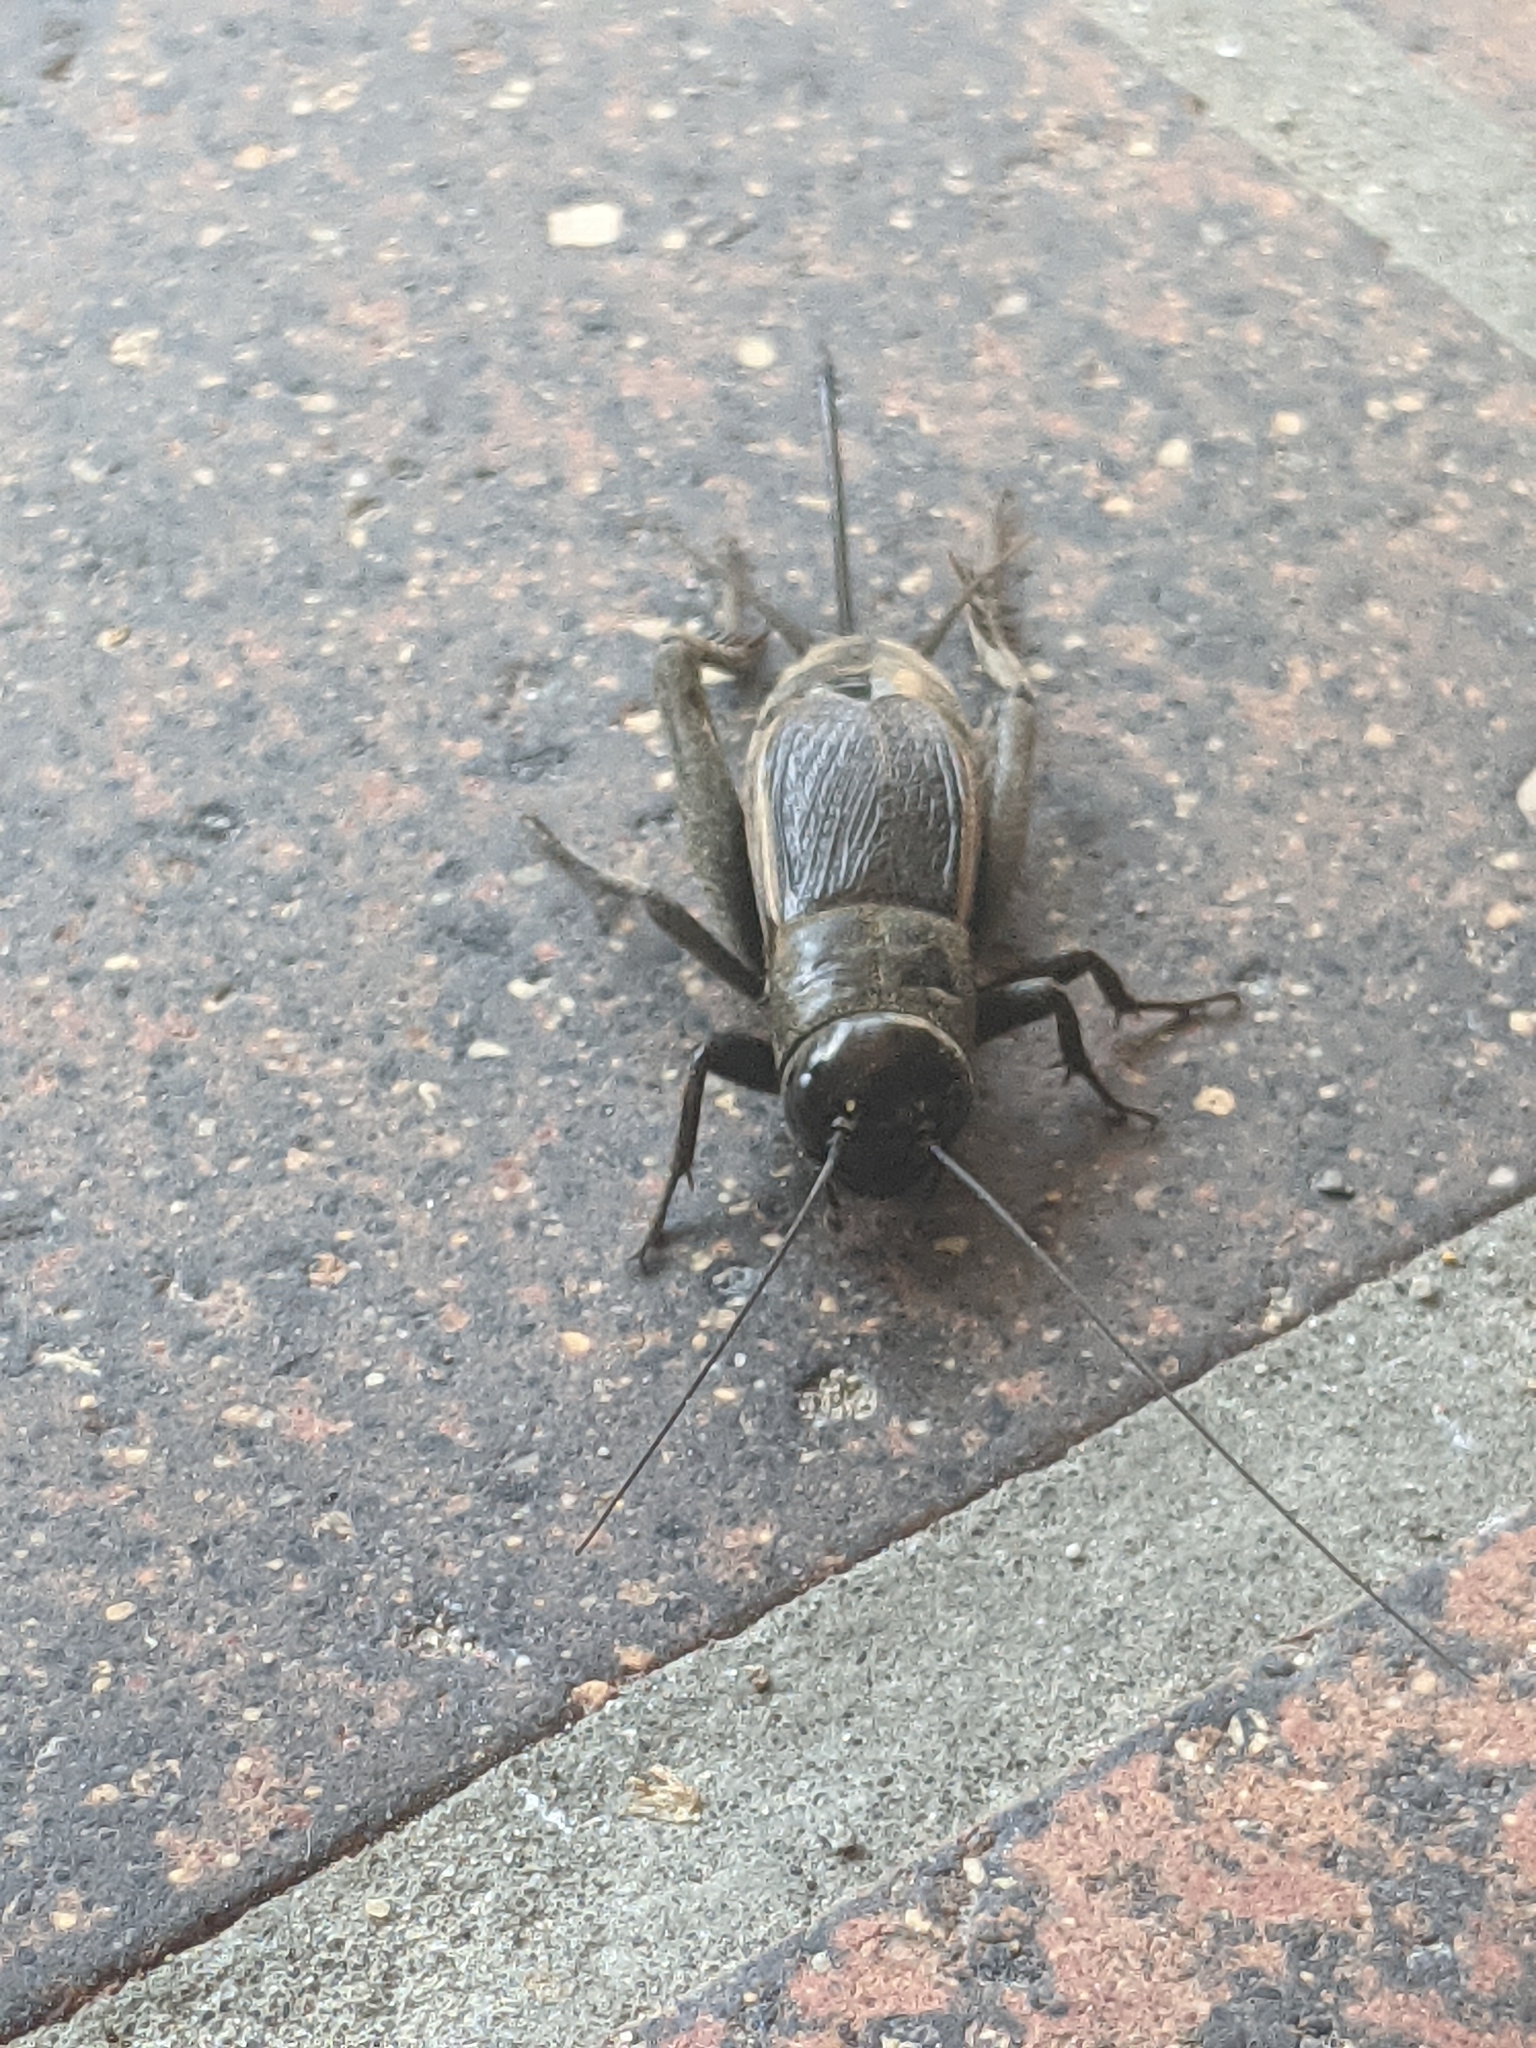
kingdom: Animalia
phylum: Arthropoda
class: Insecta
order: Orthoptera
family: Gryllidae
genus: Gryllus
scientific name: Gryllus pennsylvanicus
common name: Fall field cricket
